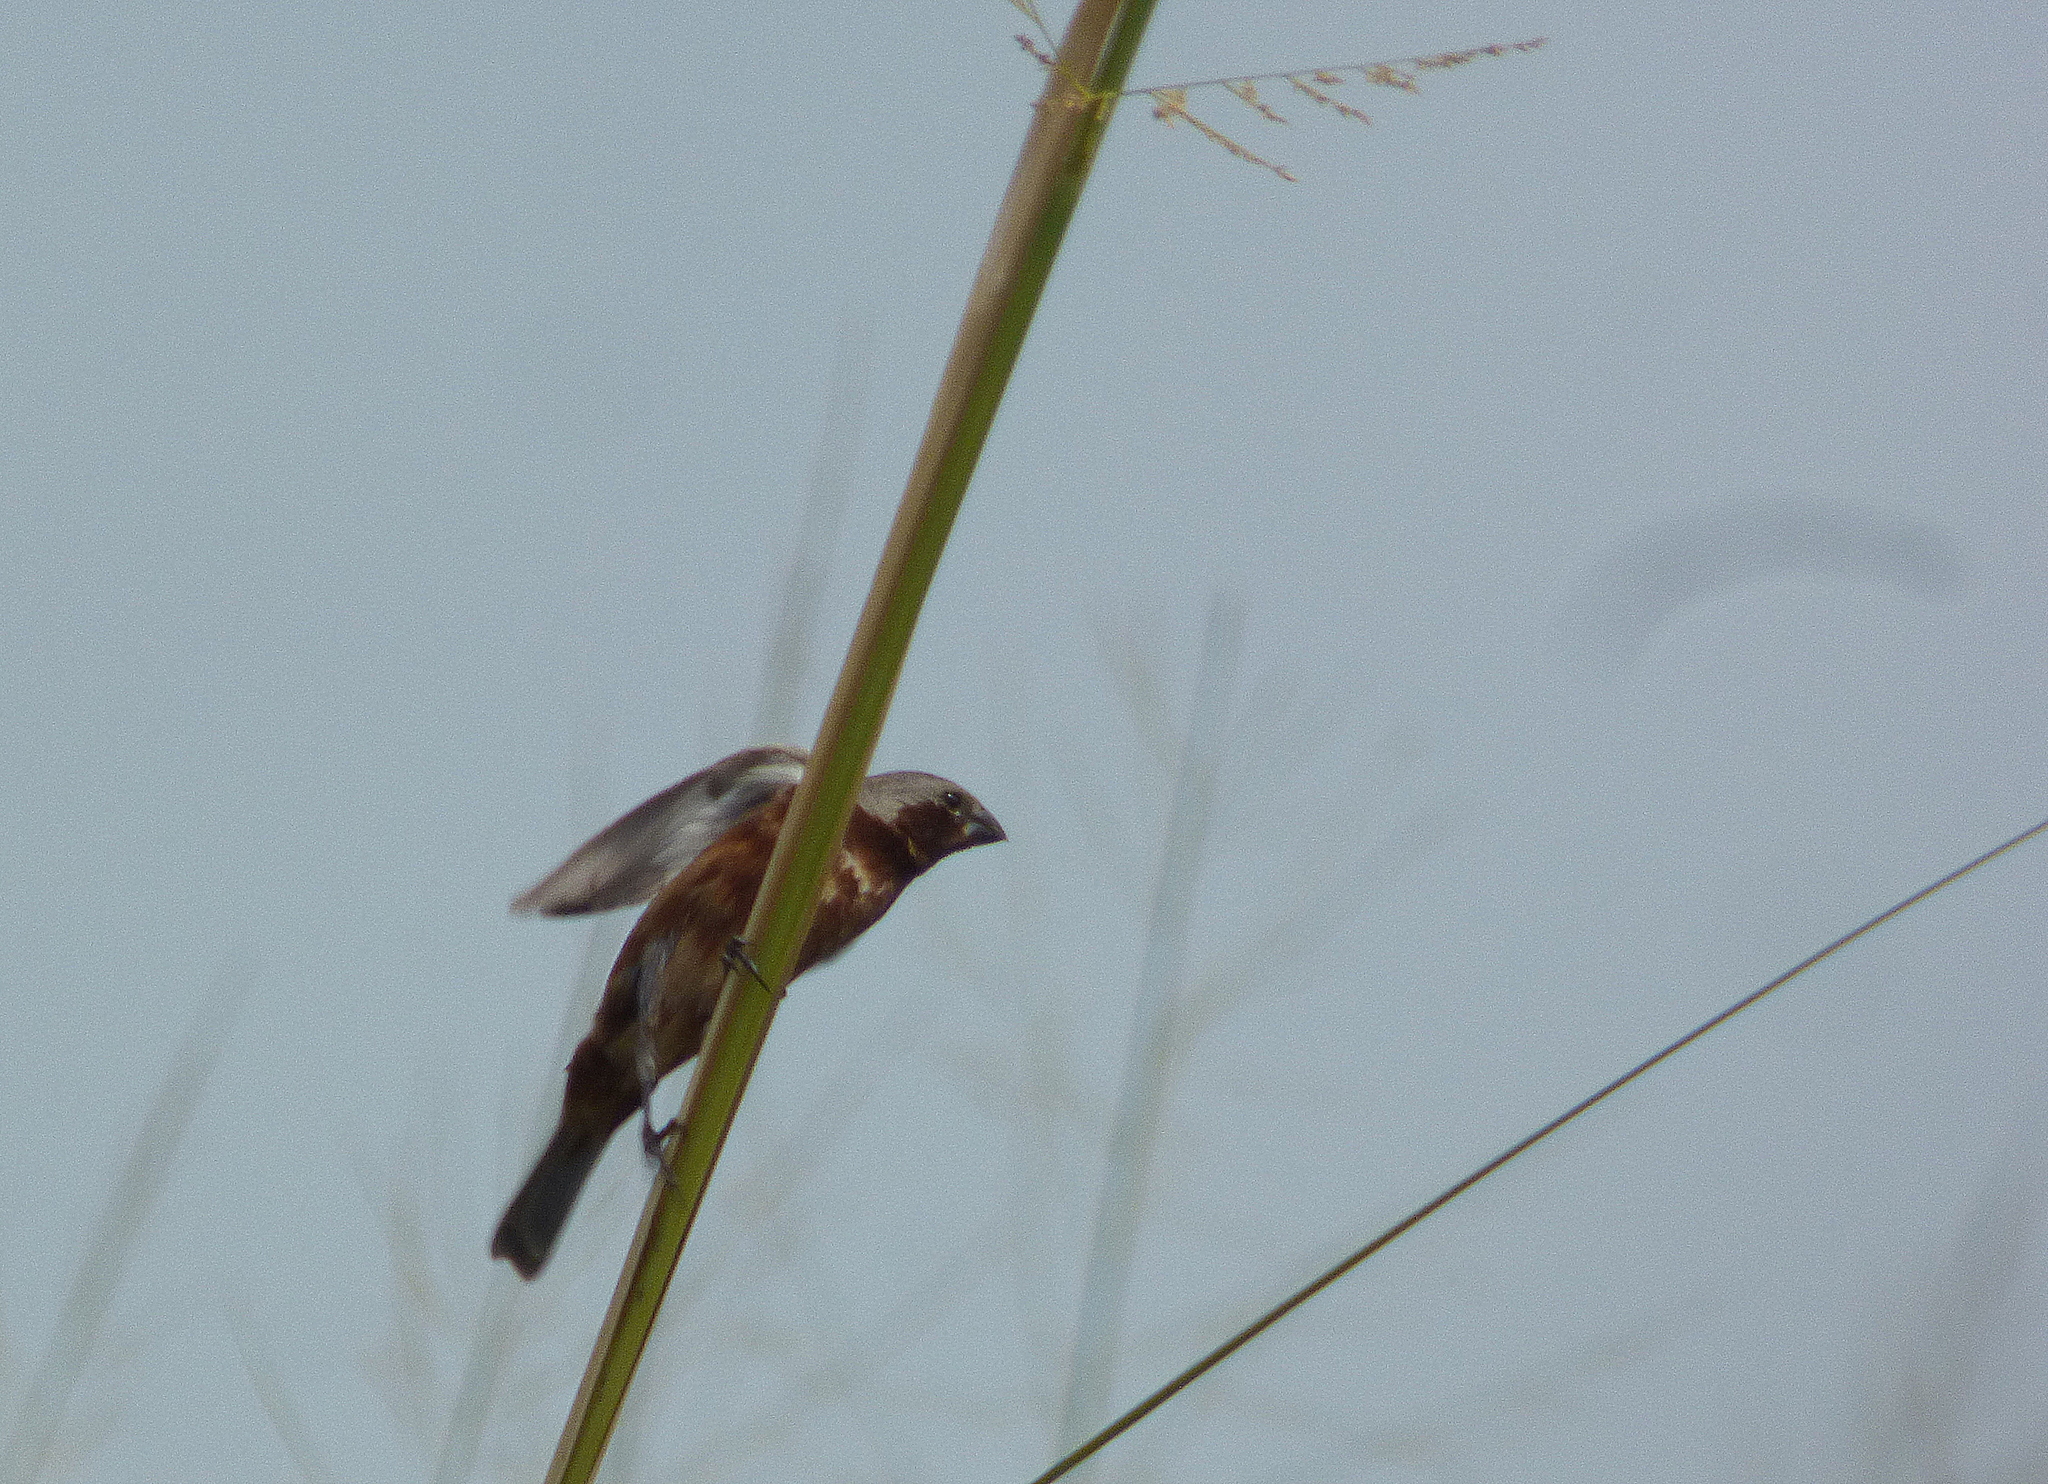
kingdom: Animalia
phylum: Chordata
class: Aves
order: Passeriformes
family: Thraupidae
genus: Sporophila
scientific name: Sporophila hypochroma
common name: Rufous-rumped seedeater
